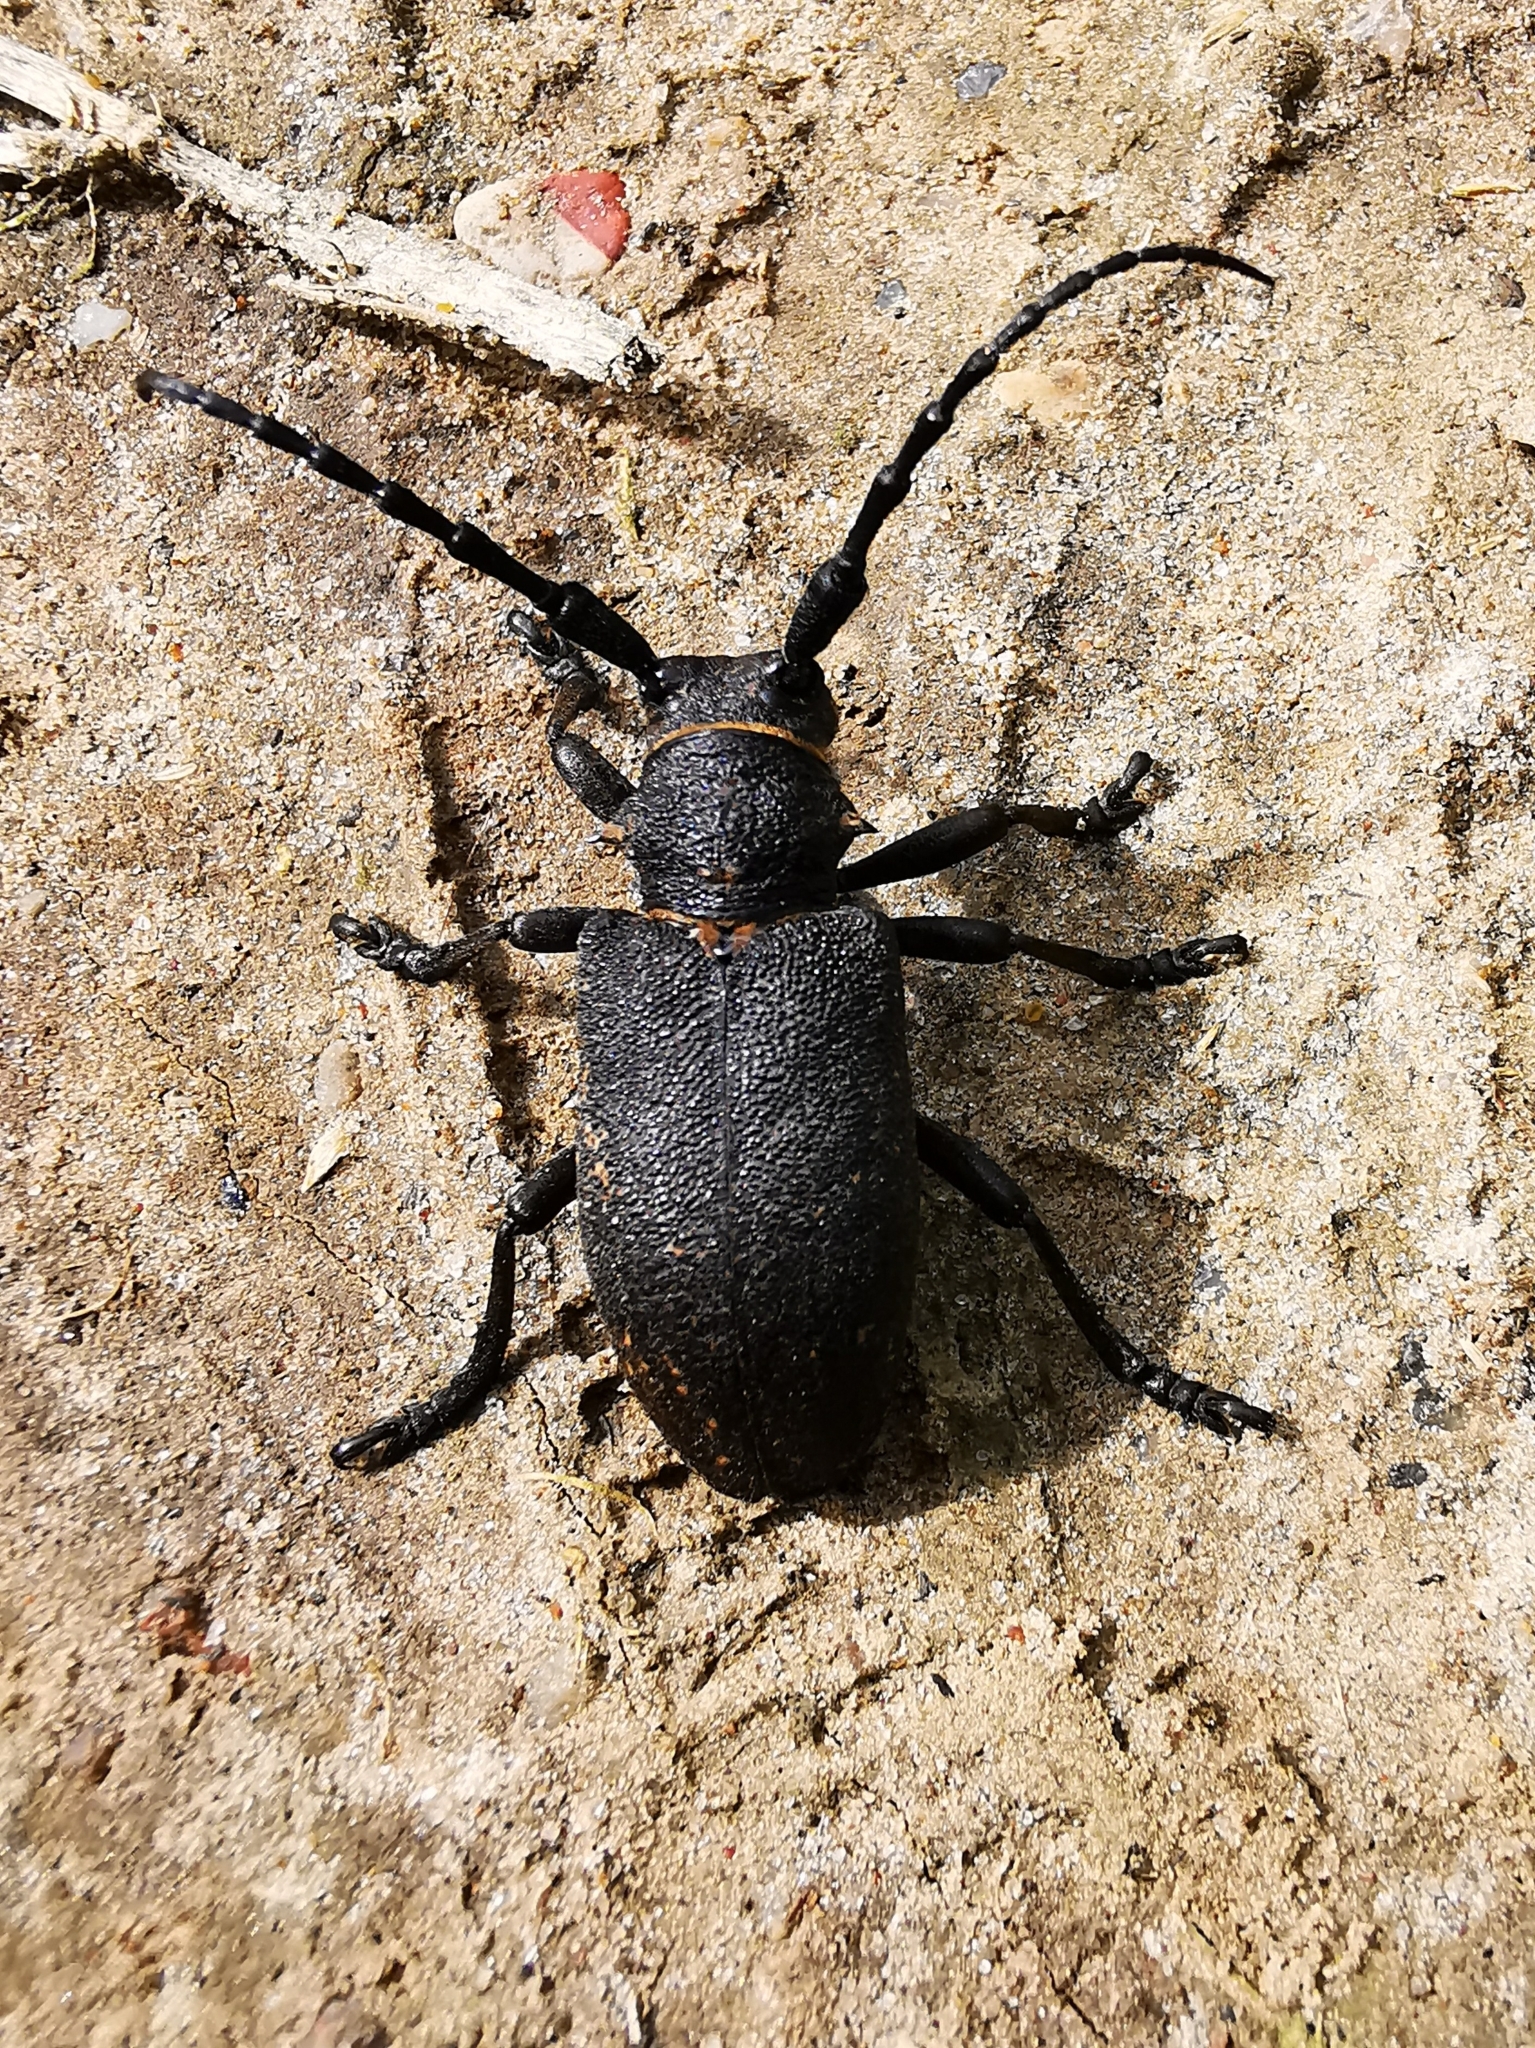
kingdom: Animalia
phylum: Arthropoda
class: Insecta
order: Coleoptera
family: Cerambycidae
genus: Lamia
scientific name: Lamia textor
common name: Weaver beetle
